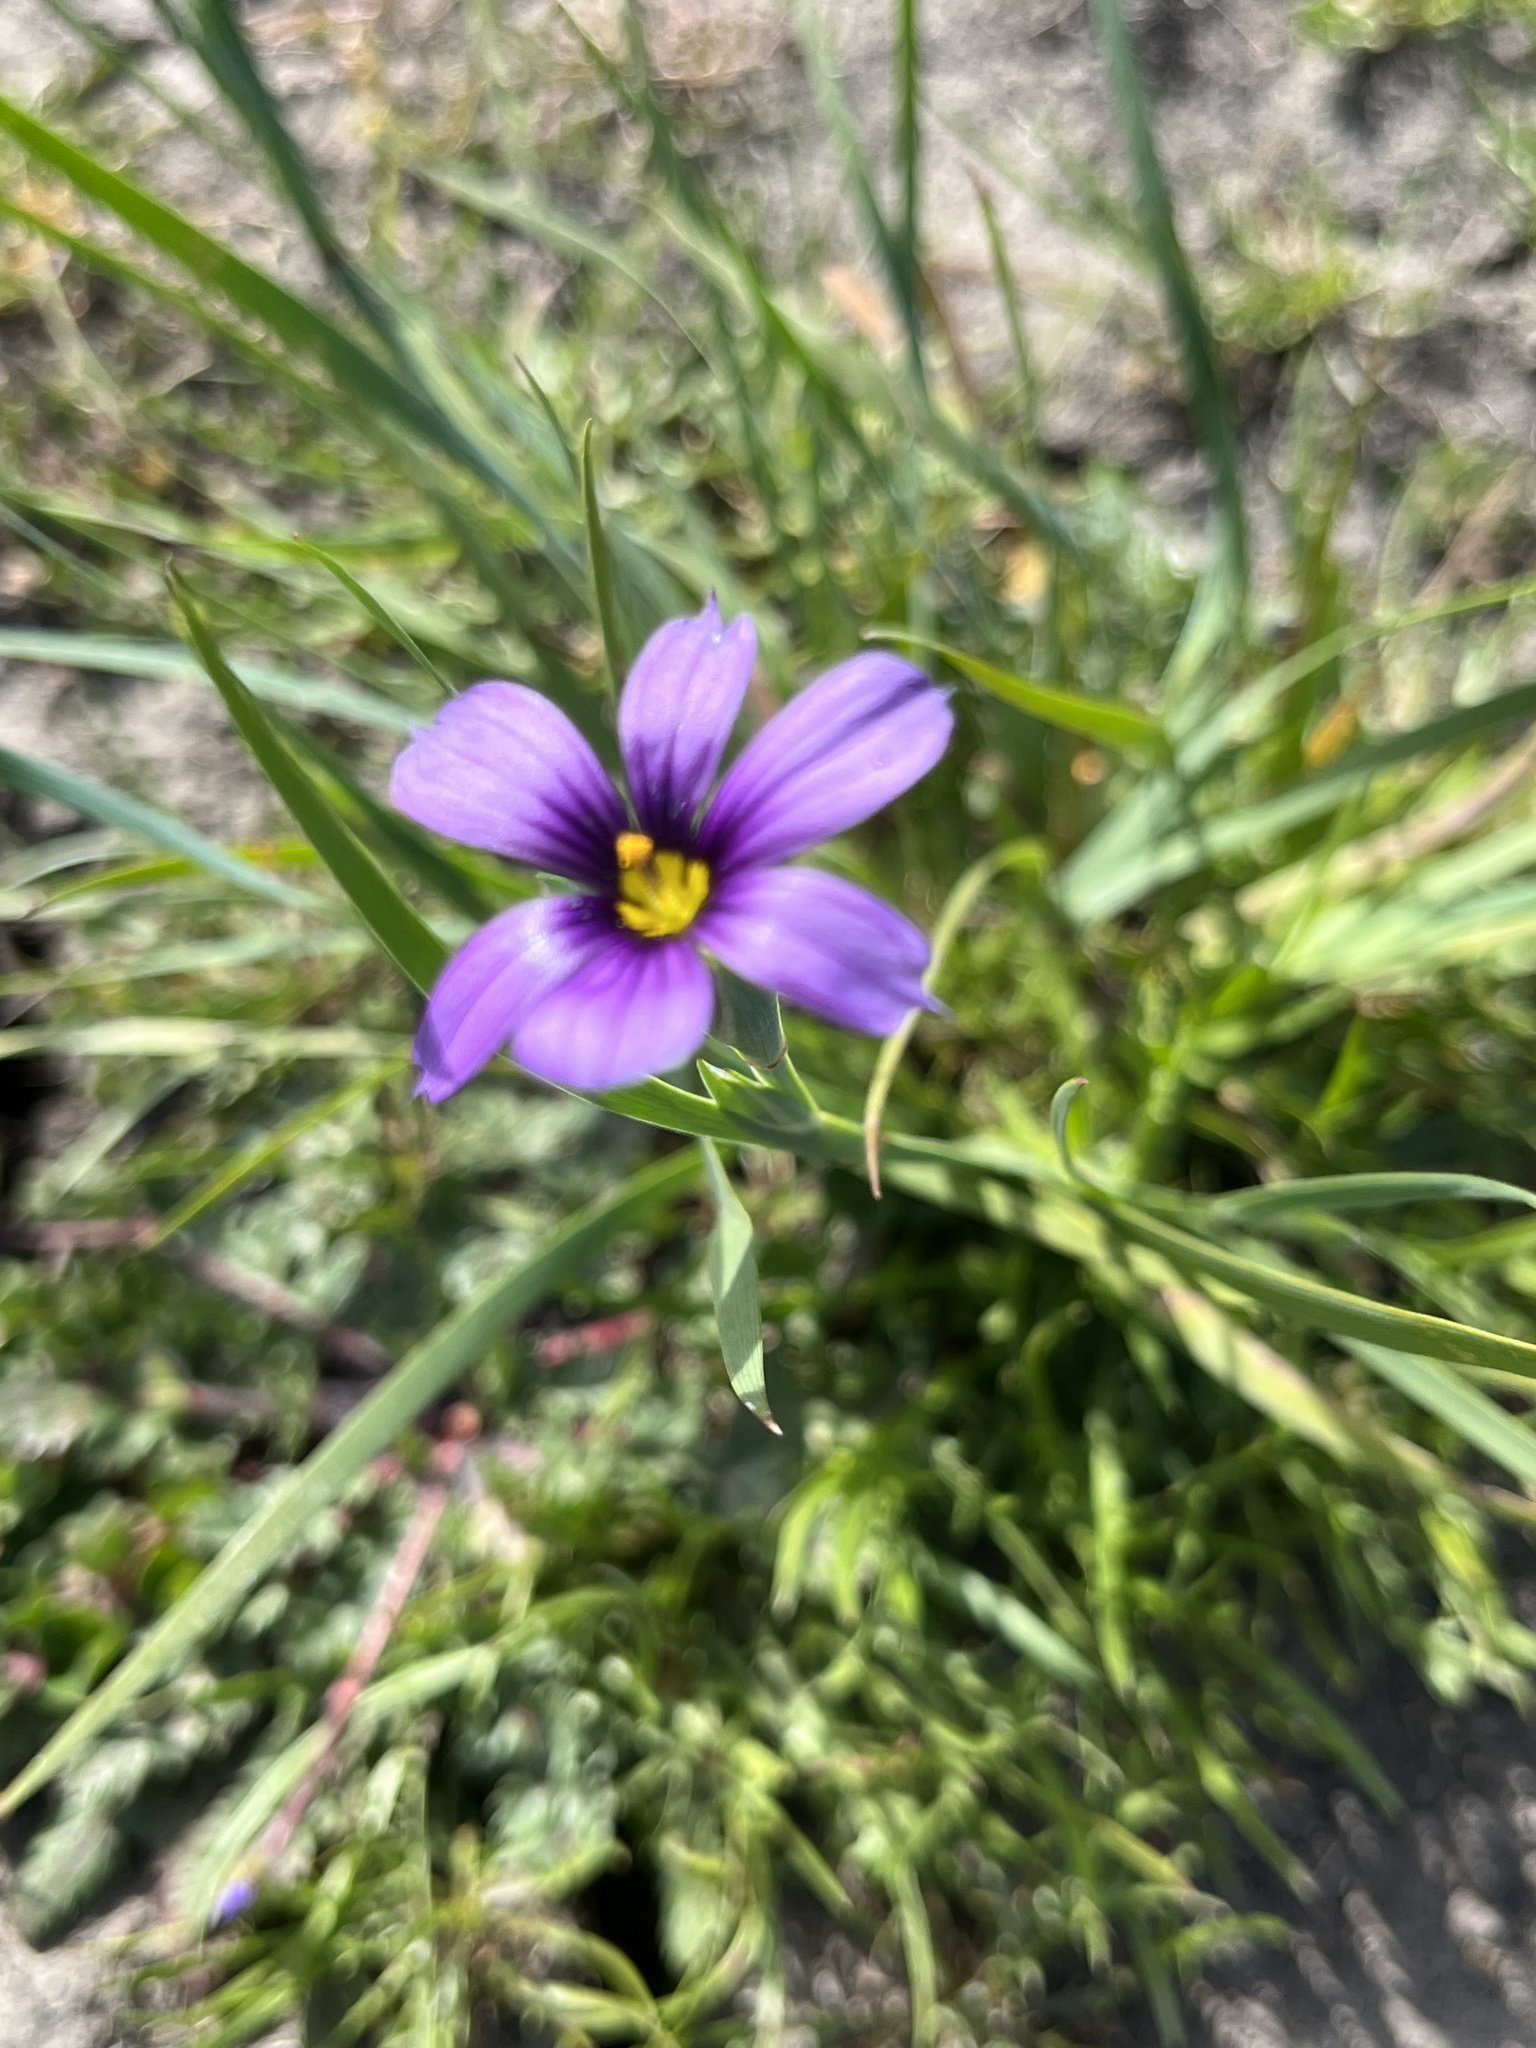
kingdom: Plantae
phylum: Tracheophyta
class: Liliopsida
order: Asparagales
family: Iridaceae
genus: Sisyrinchium
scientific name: Sisyrinchium bellum
